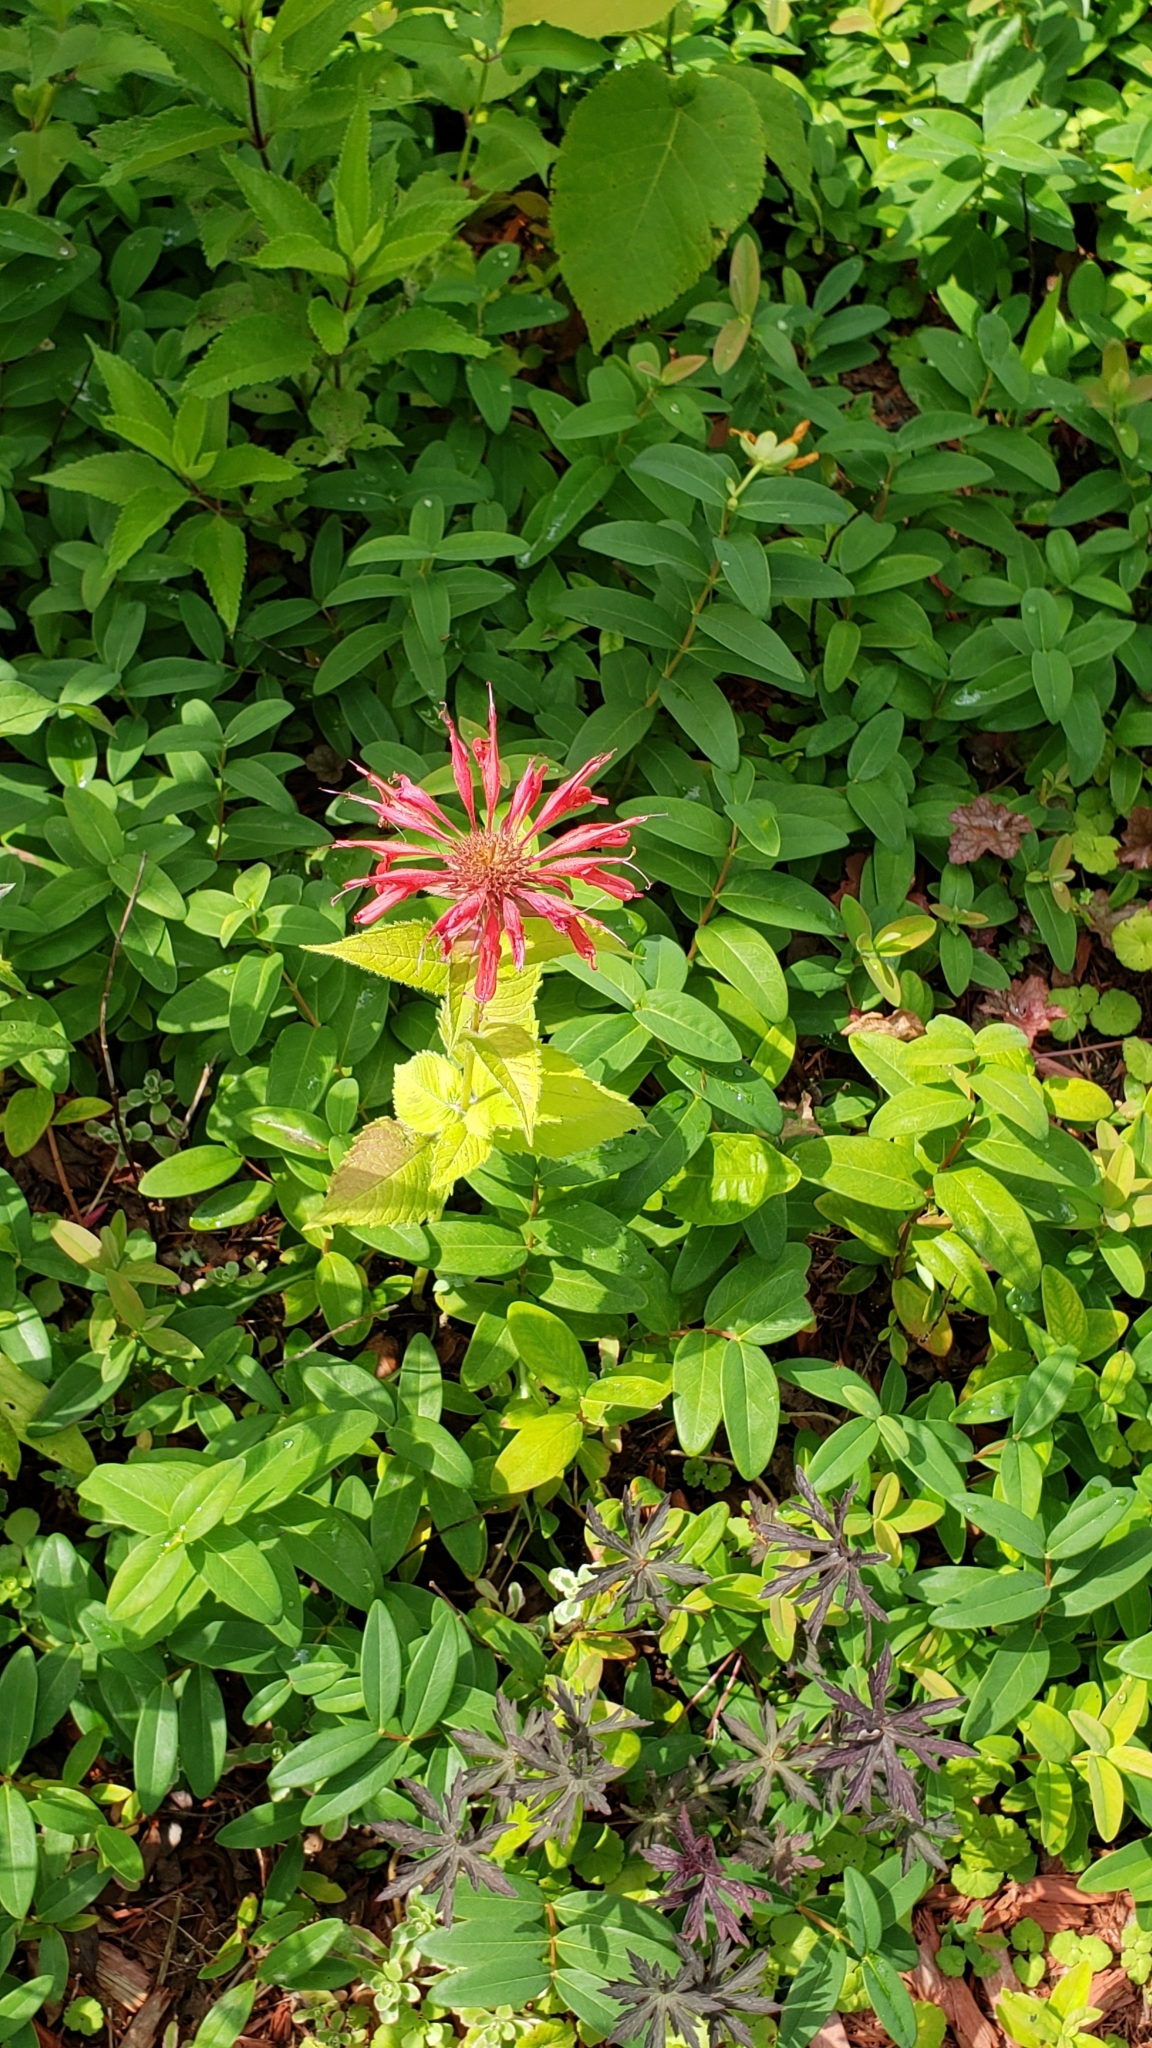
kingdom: Plantae
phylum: Tracheophyta
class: Magnoliopsida
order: Lamiales
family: Lamiaceae
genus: Monarda
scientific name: Monarda didyma
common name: Beebalm
